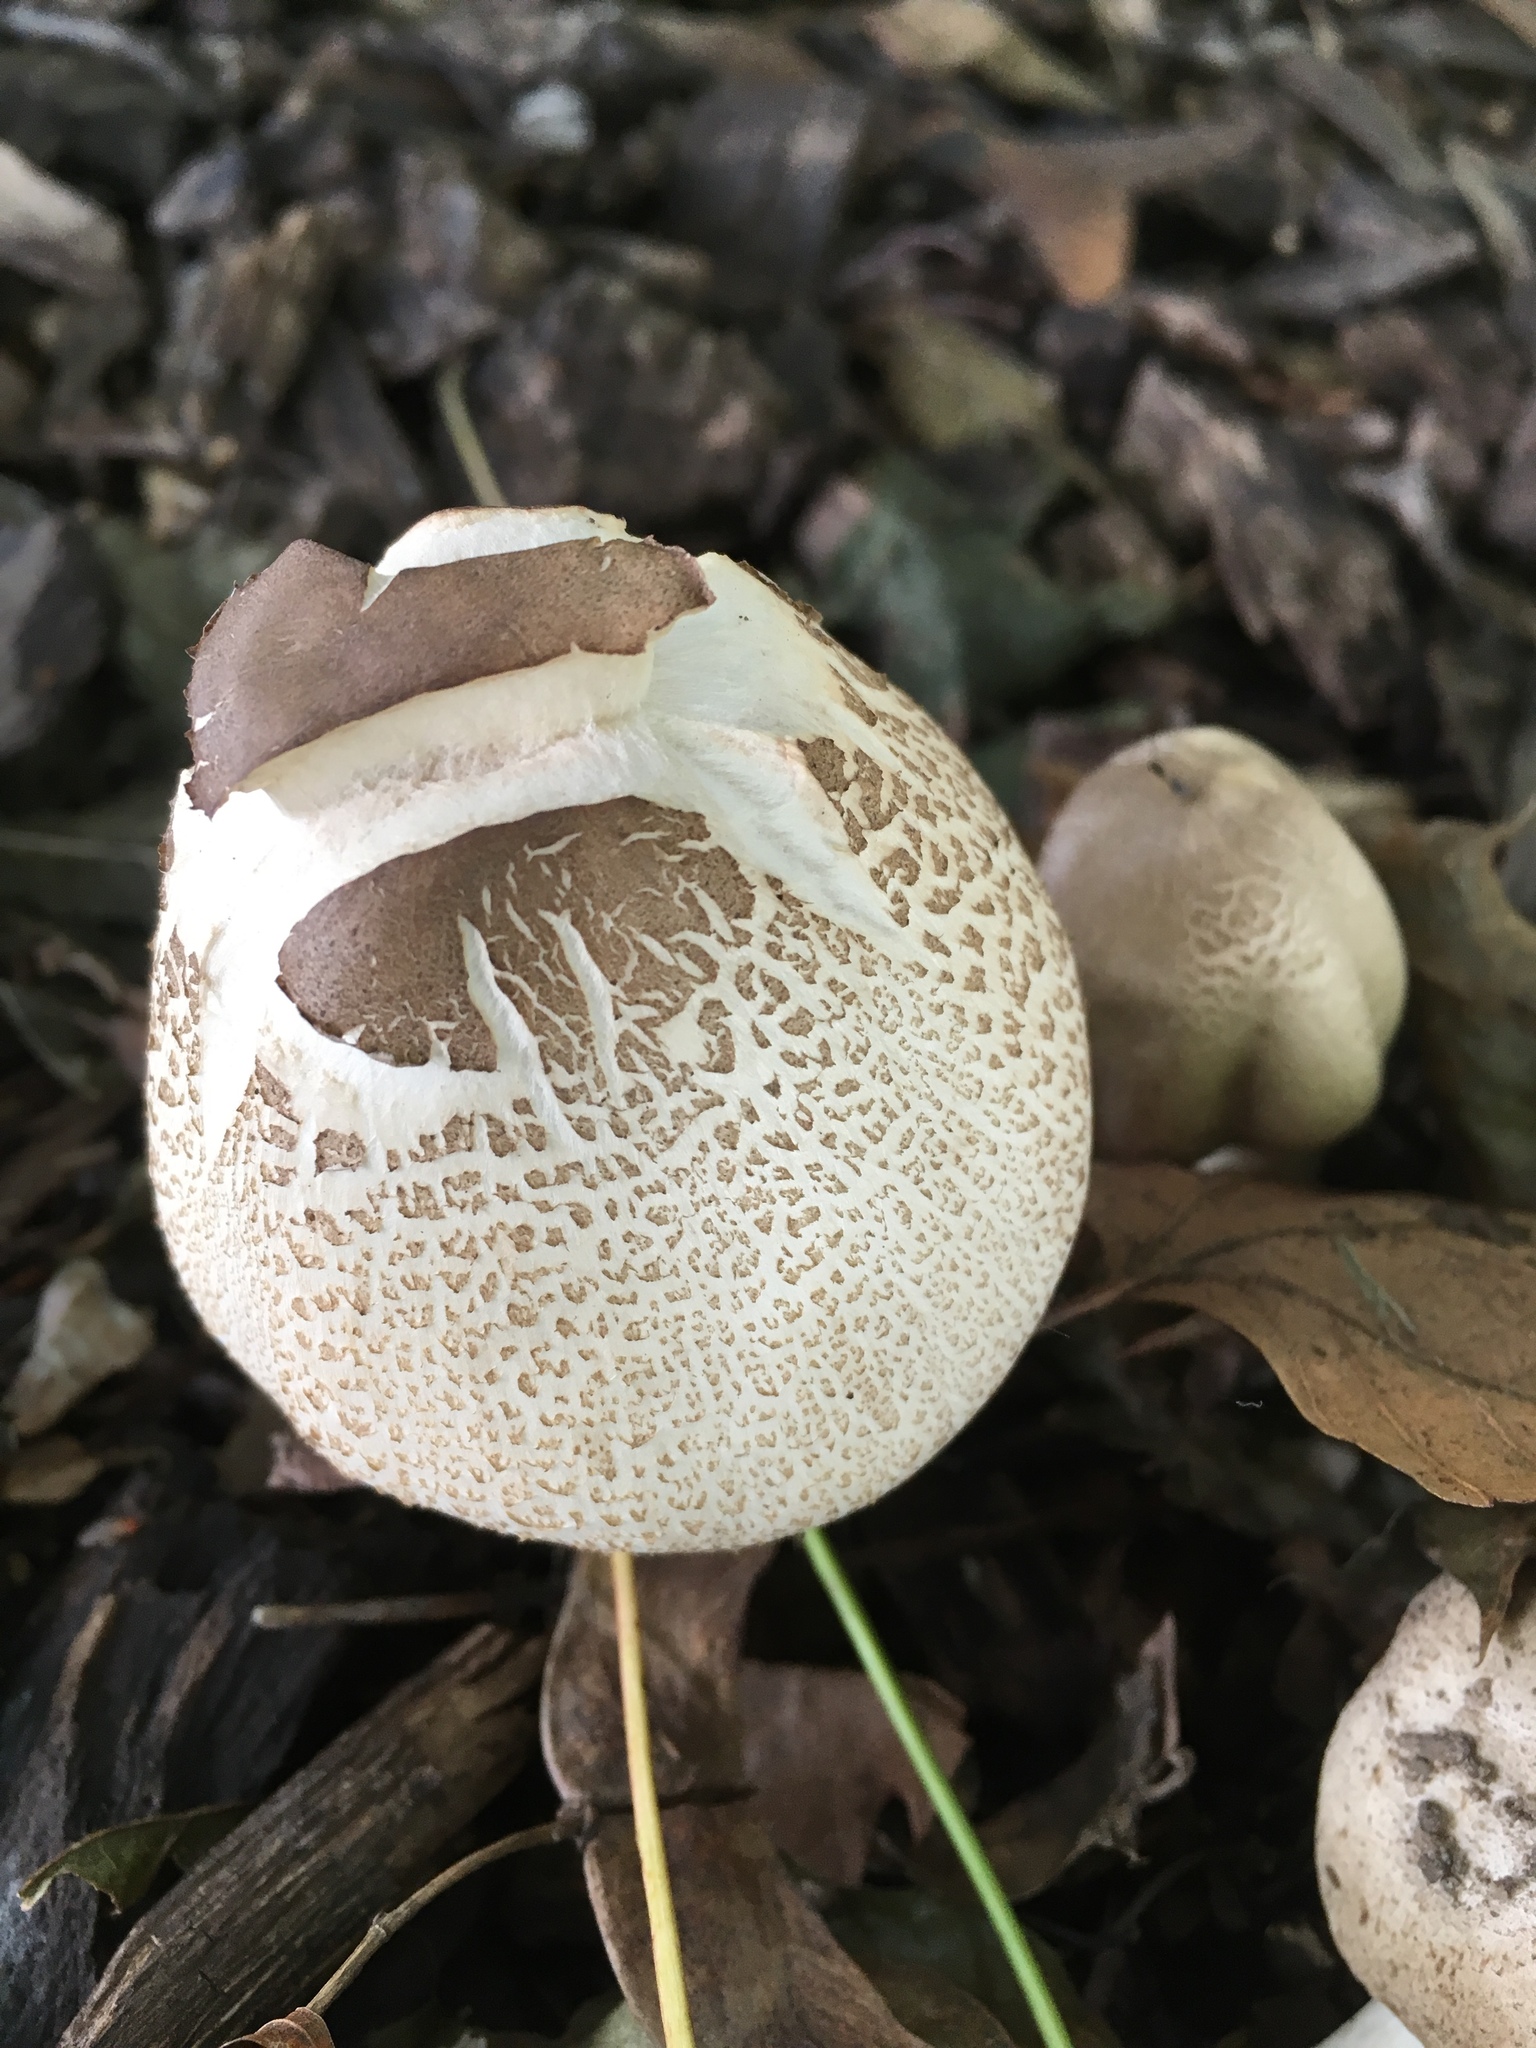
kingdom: Fungi
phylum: Basidiomycota
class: Agaricomycetes
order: Agaricales
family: Agaricaceae
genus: Agaricus
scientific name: Agaricus placomyces
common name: Inky mushroom
